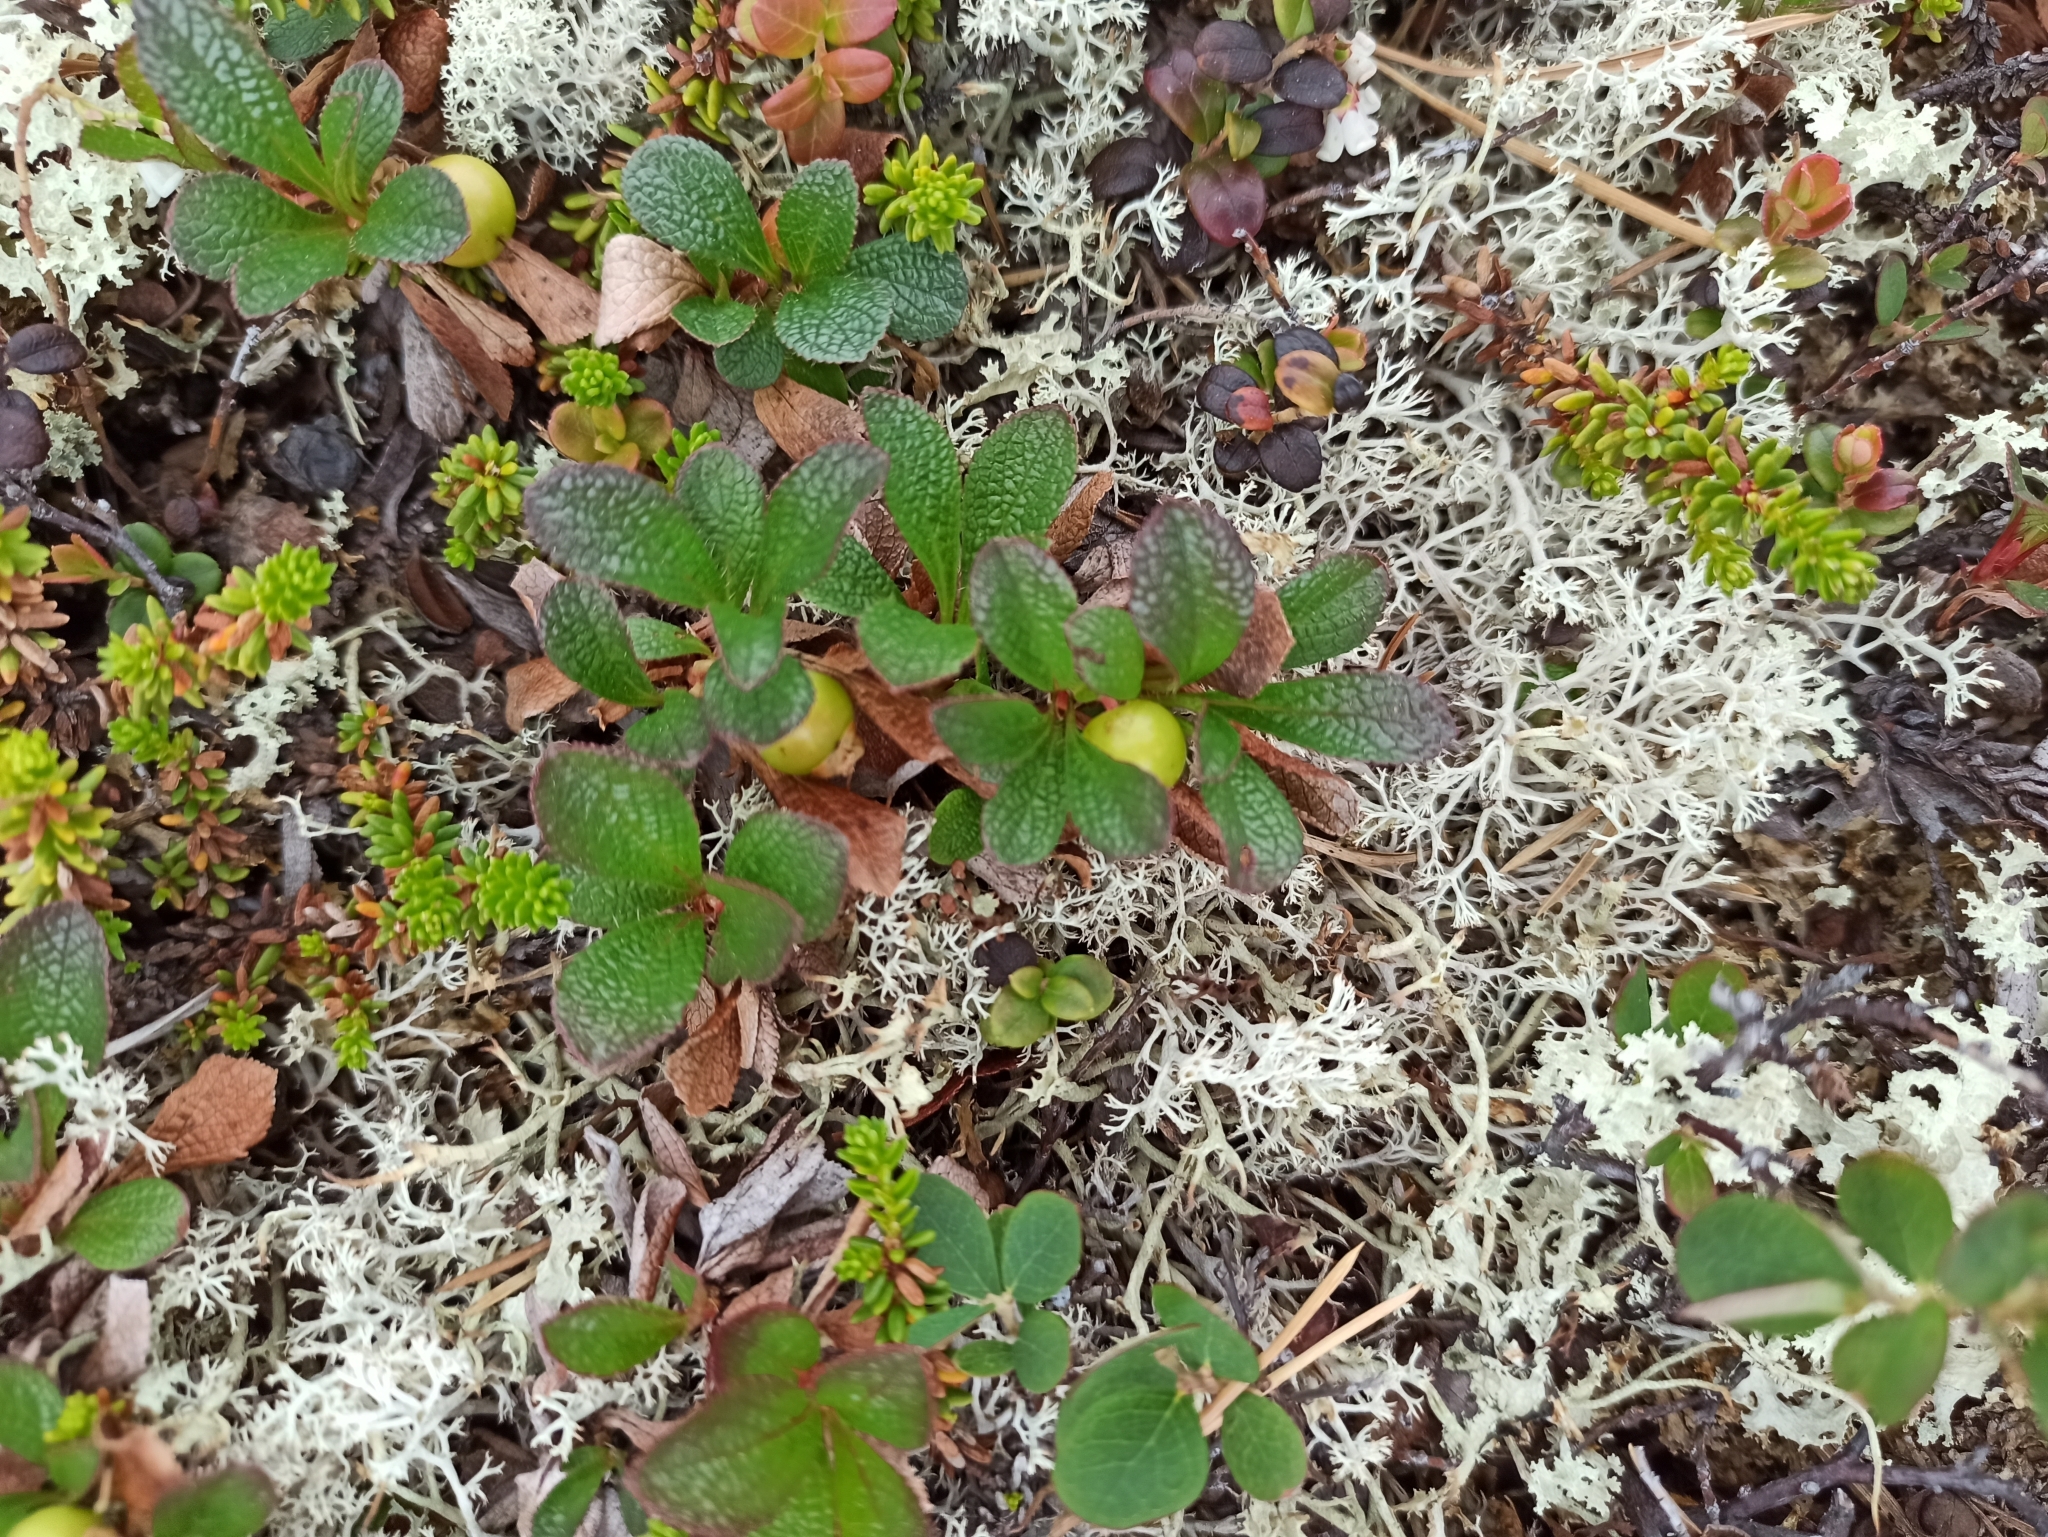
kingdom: Plantae
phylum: Tracheophyta
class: Magnoliopsida
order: Ericales
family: Ericaceae
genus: Arctostaphylos
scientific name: Arctostaphylos alpinus
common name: Alpine bearberry
